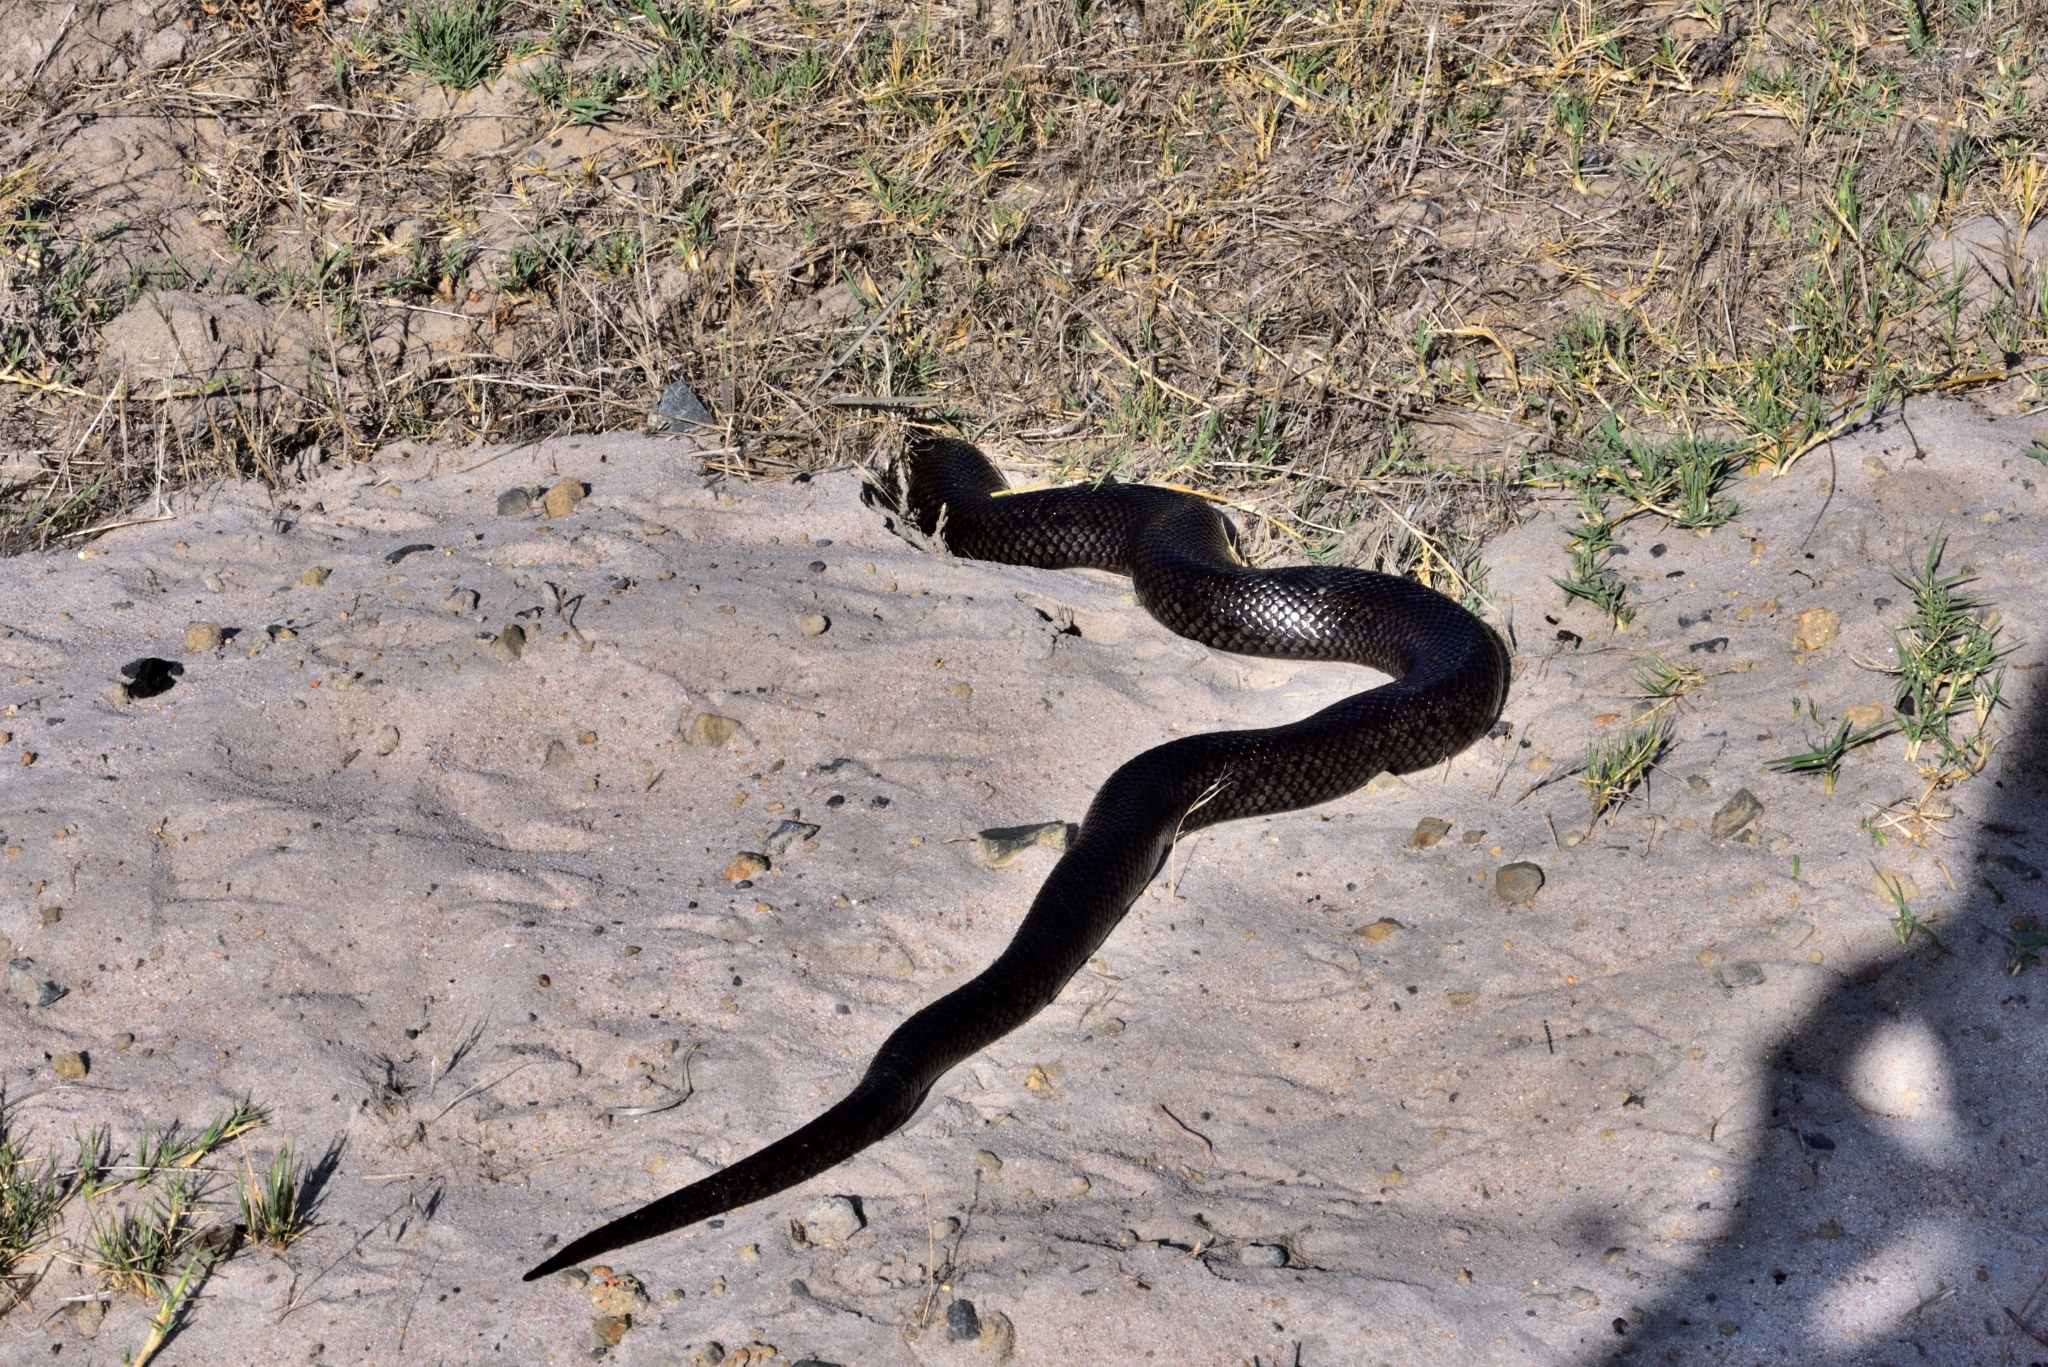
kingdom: Animalia
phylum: Chordata
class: Squamata
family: Pseudaspididae
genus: Pseudaspis
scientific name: Pseudaspis cana
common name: Mole snake
